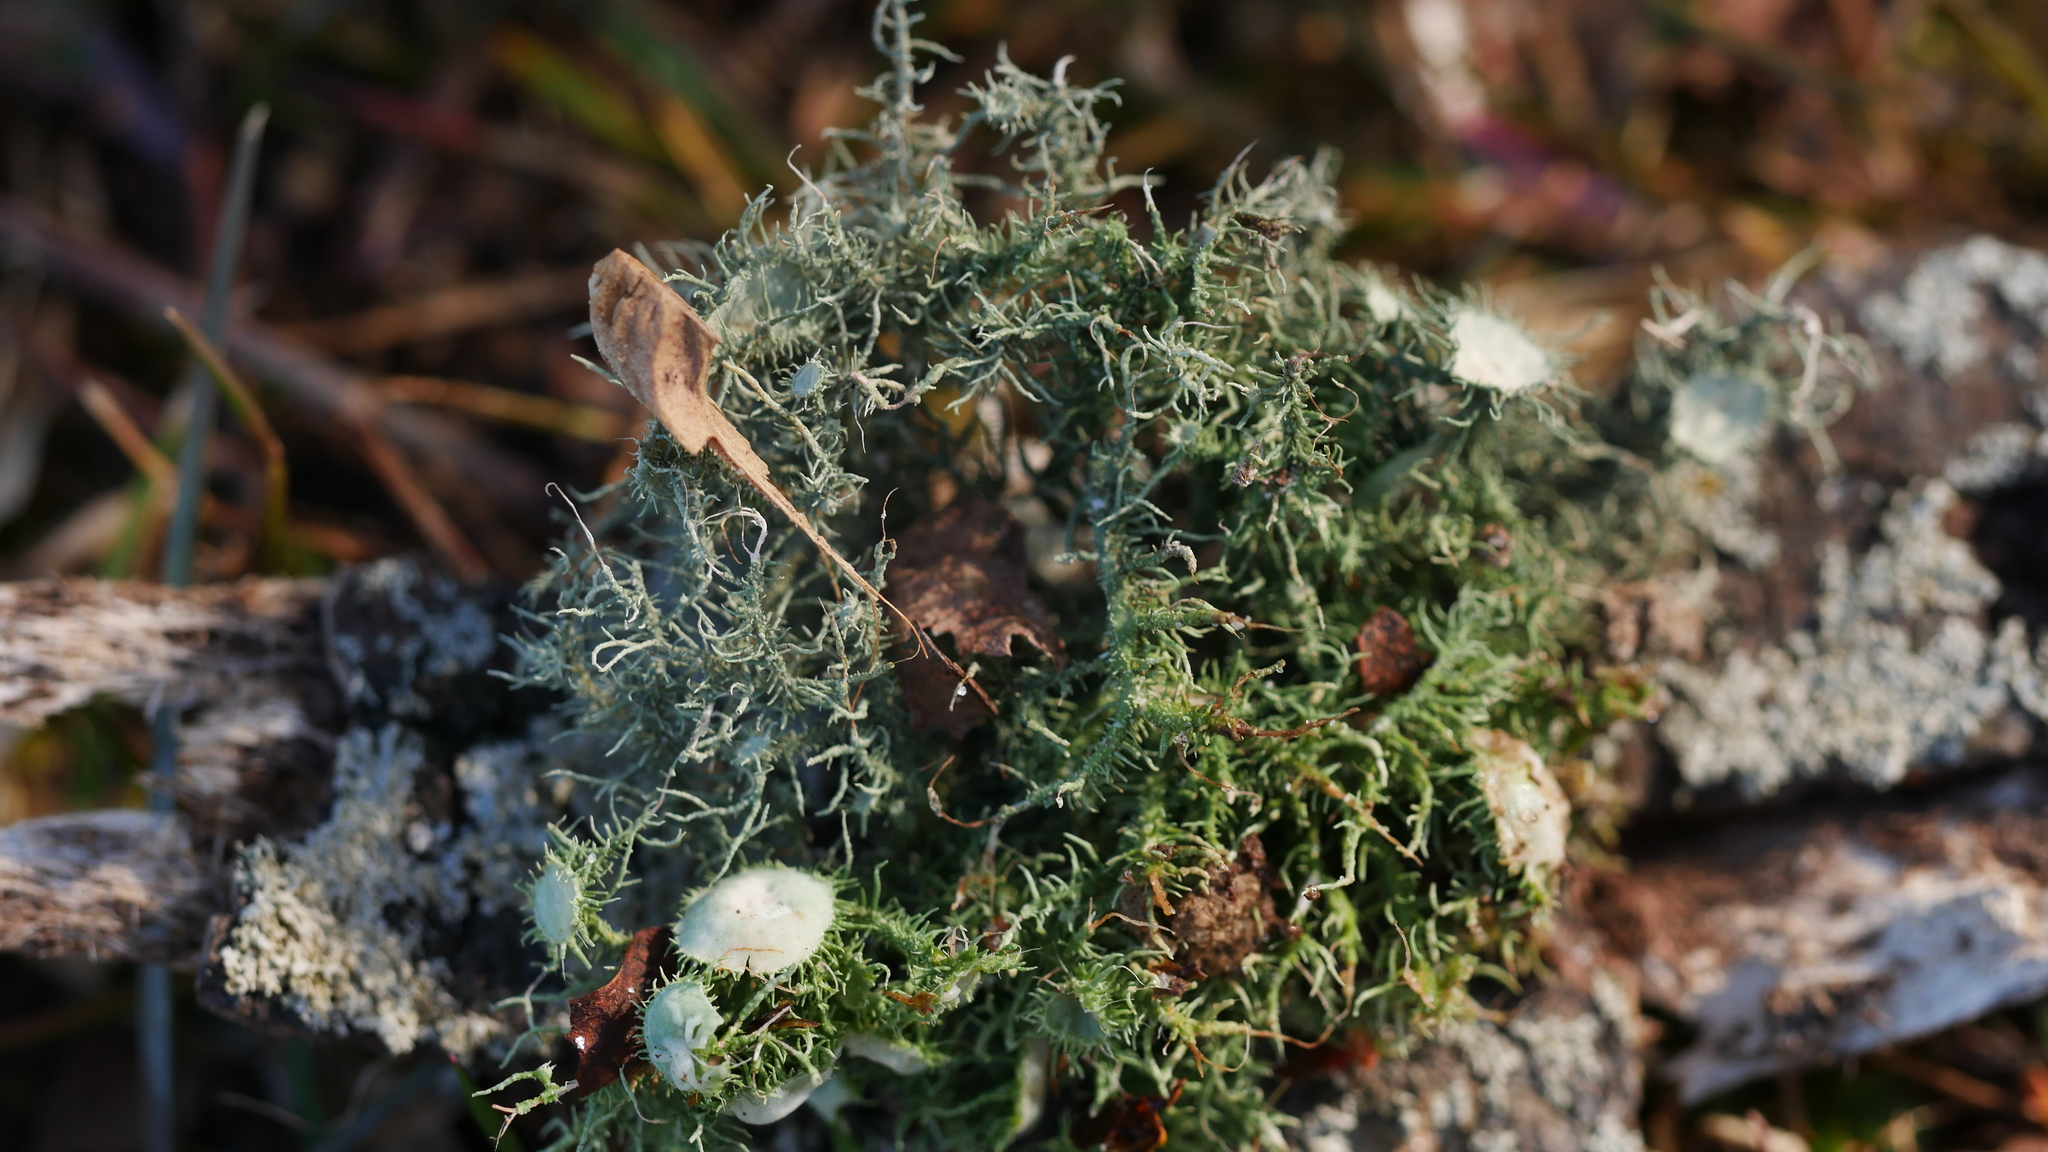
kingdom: Fungi
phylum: Ascomycota
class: Lecanoromycetes
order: Lecanorales
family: Parmeliaceae
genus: Usnea
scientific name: Usnea strigosa
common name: Bushy beard lichen
